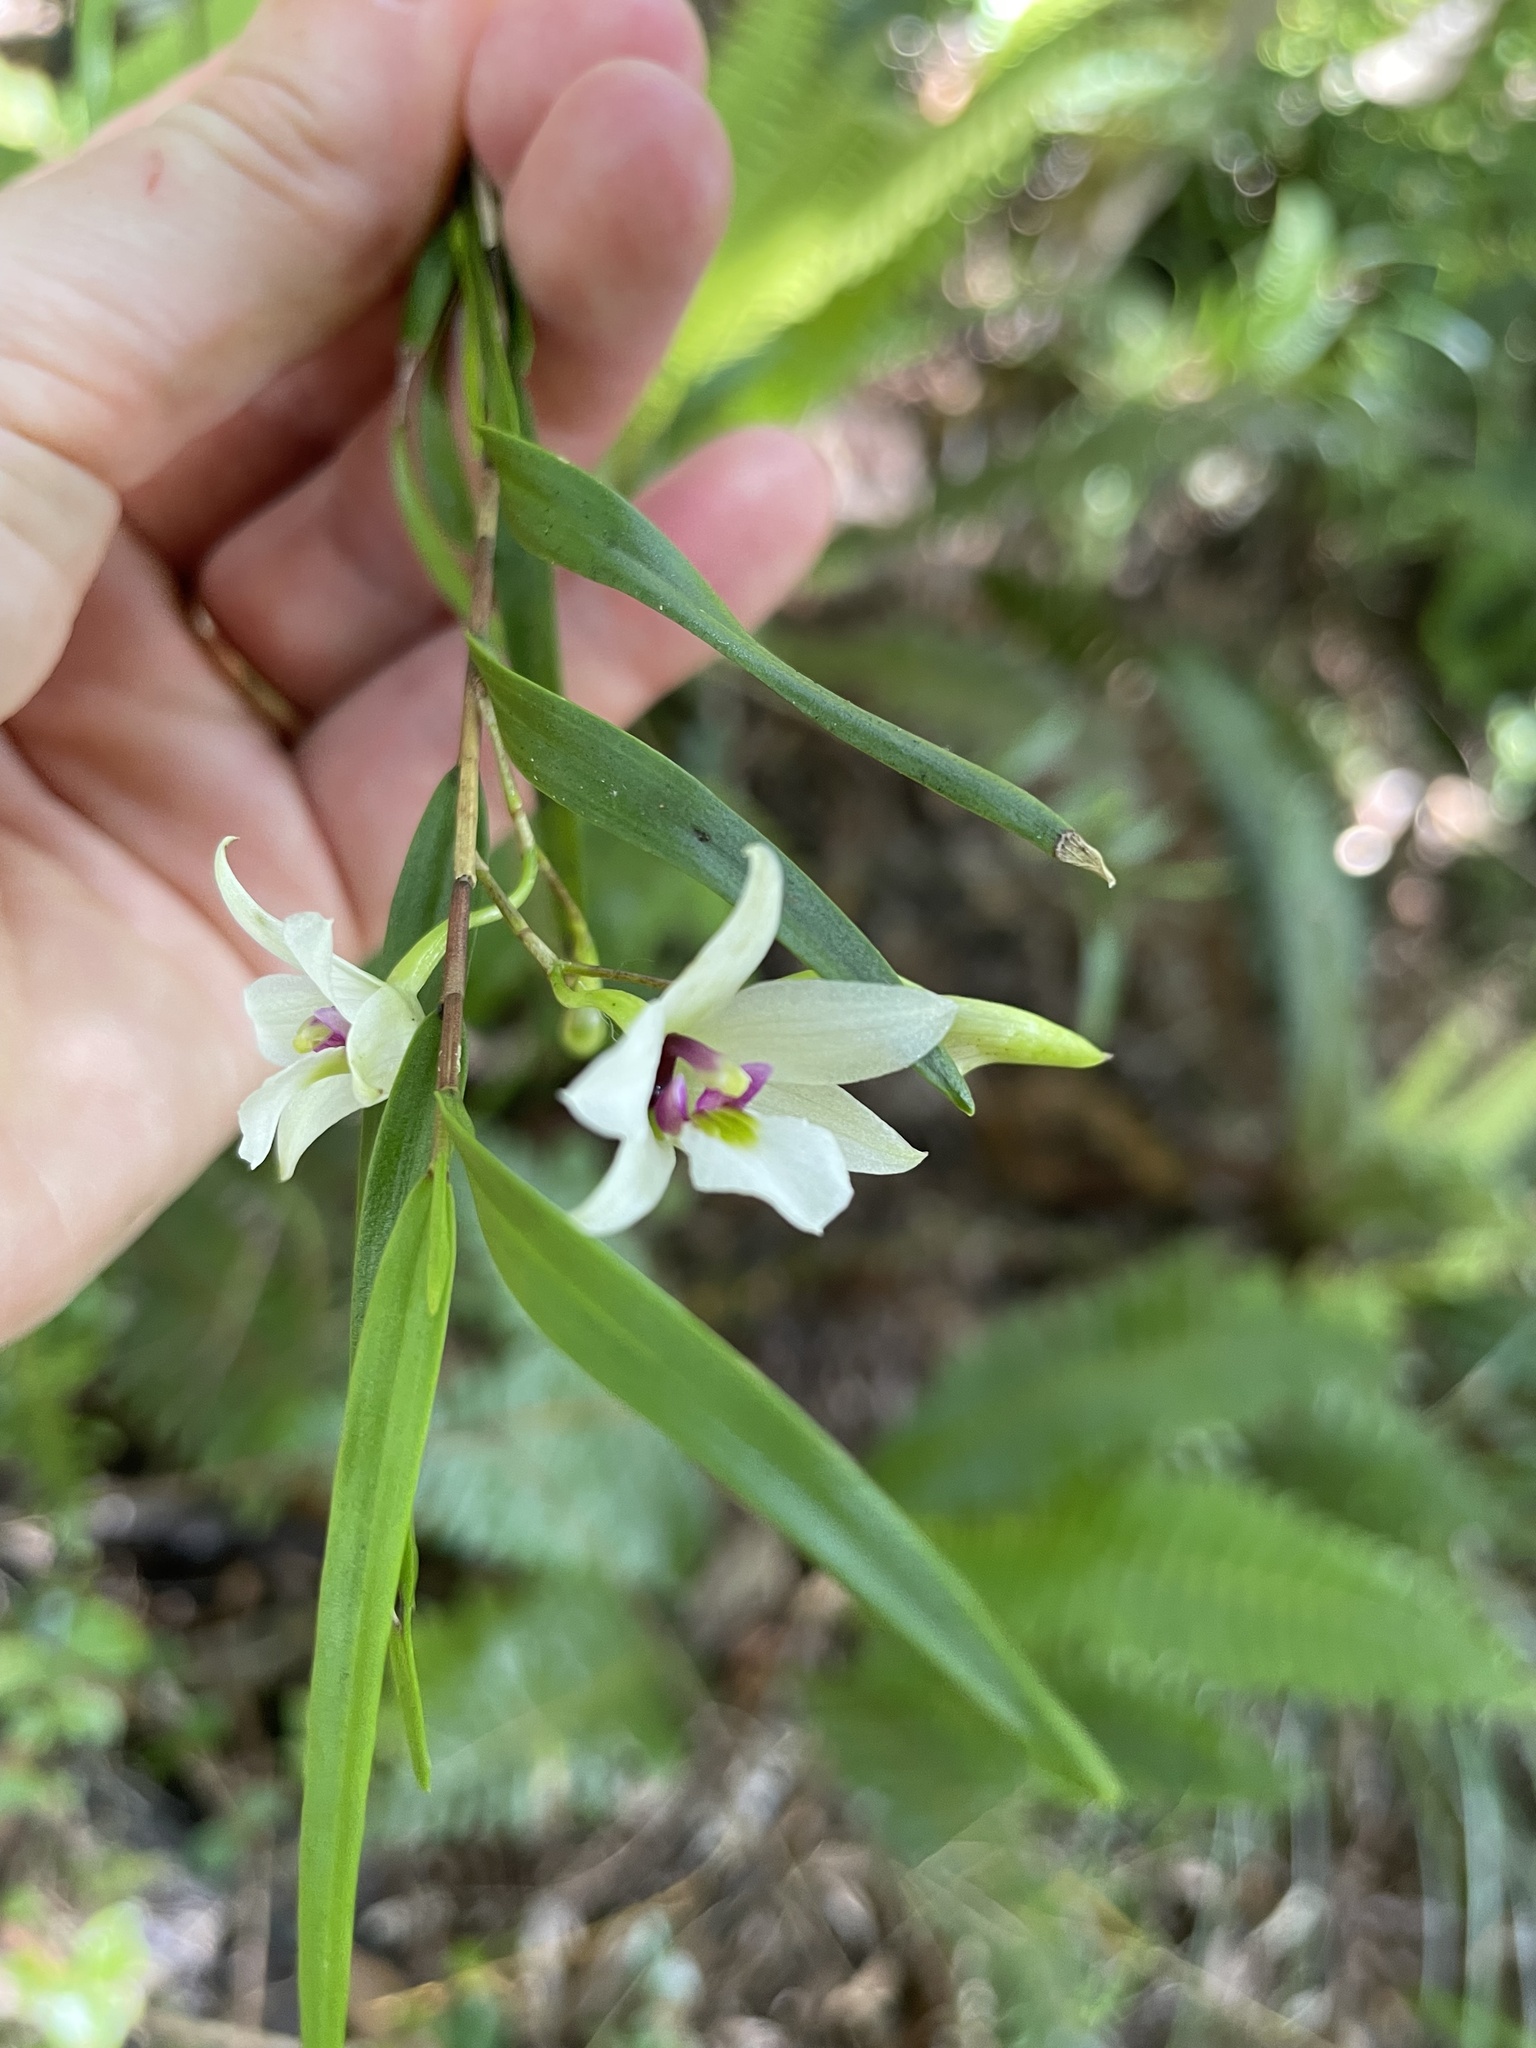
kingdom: Plantae
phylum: Tracheophyta
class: Liliopsida
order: Asparagales
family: Orchidaceae
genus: Dendrobium
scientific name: Dendrobium cunninghamii
